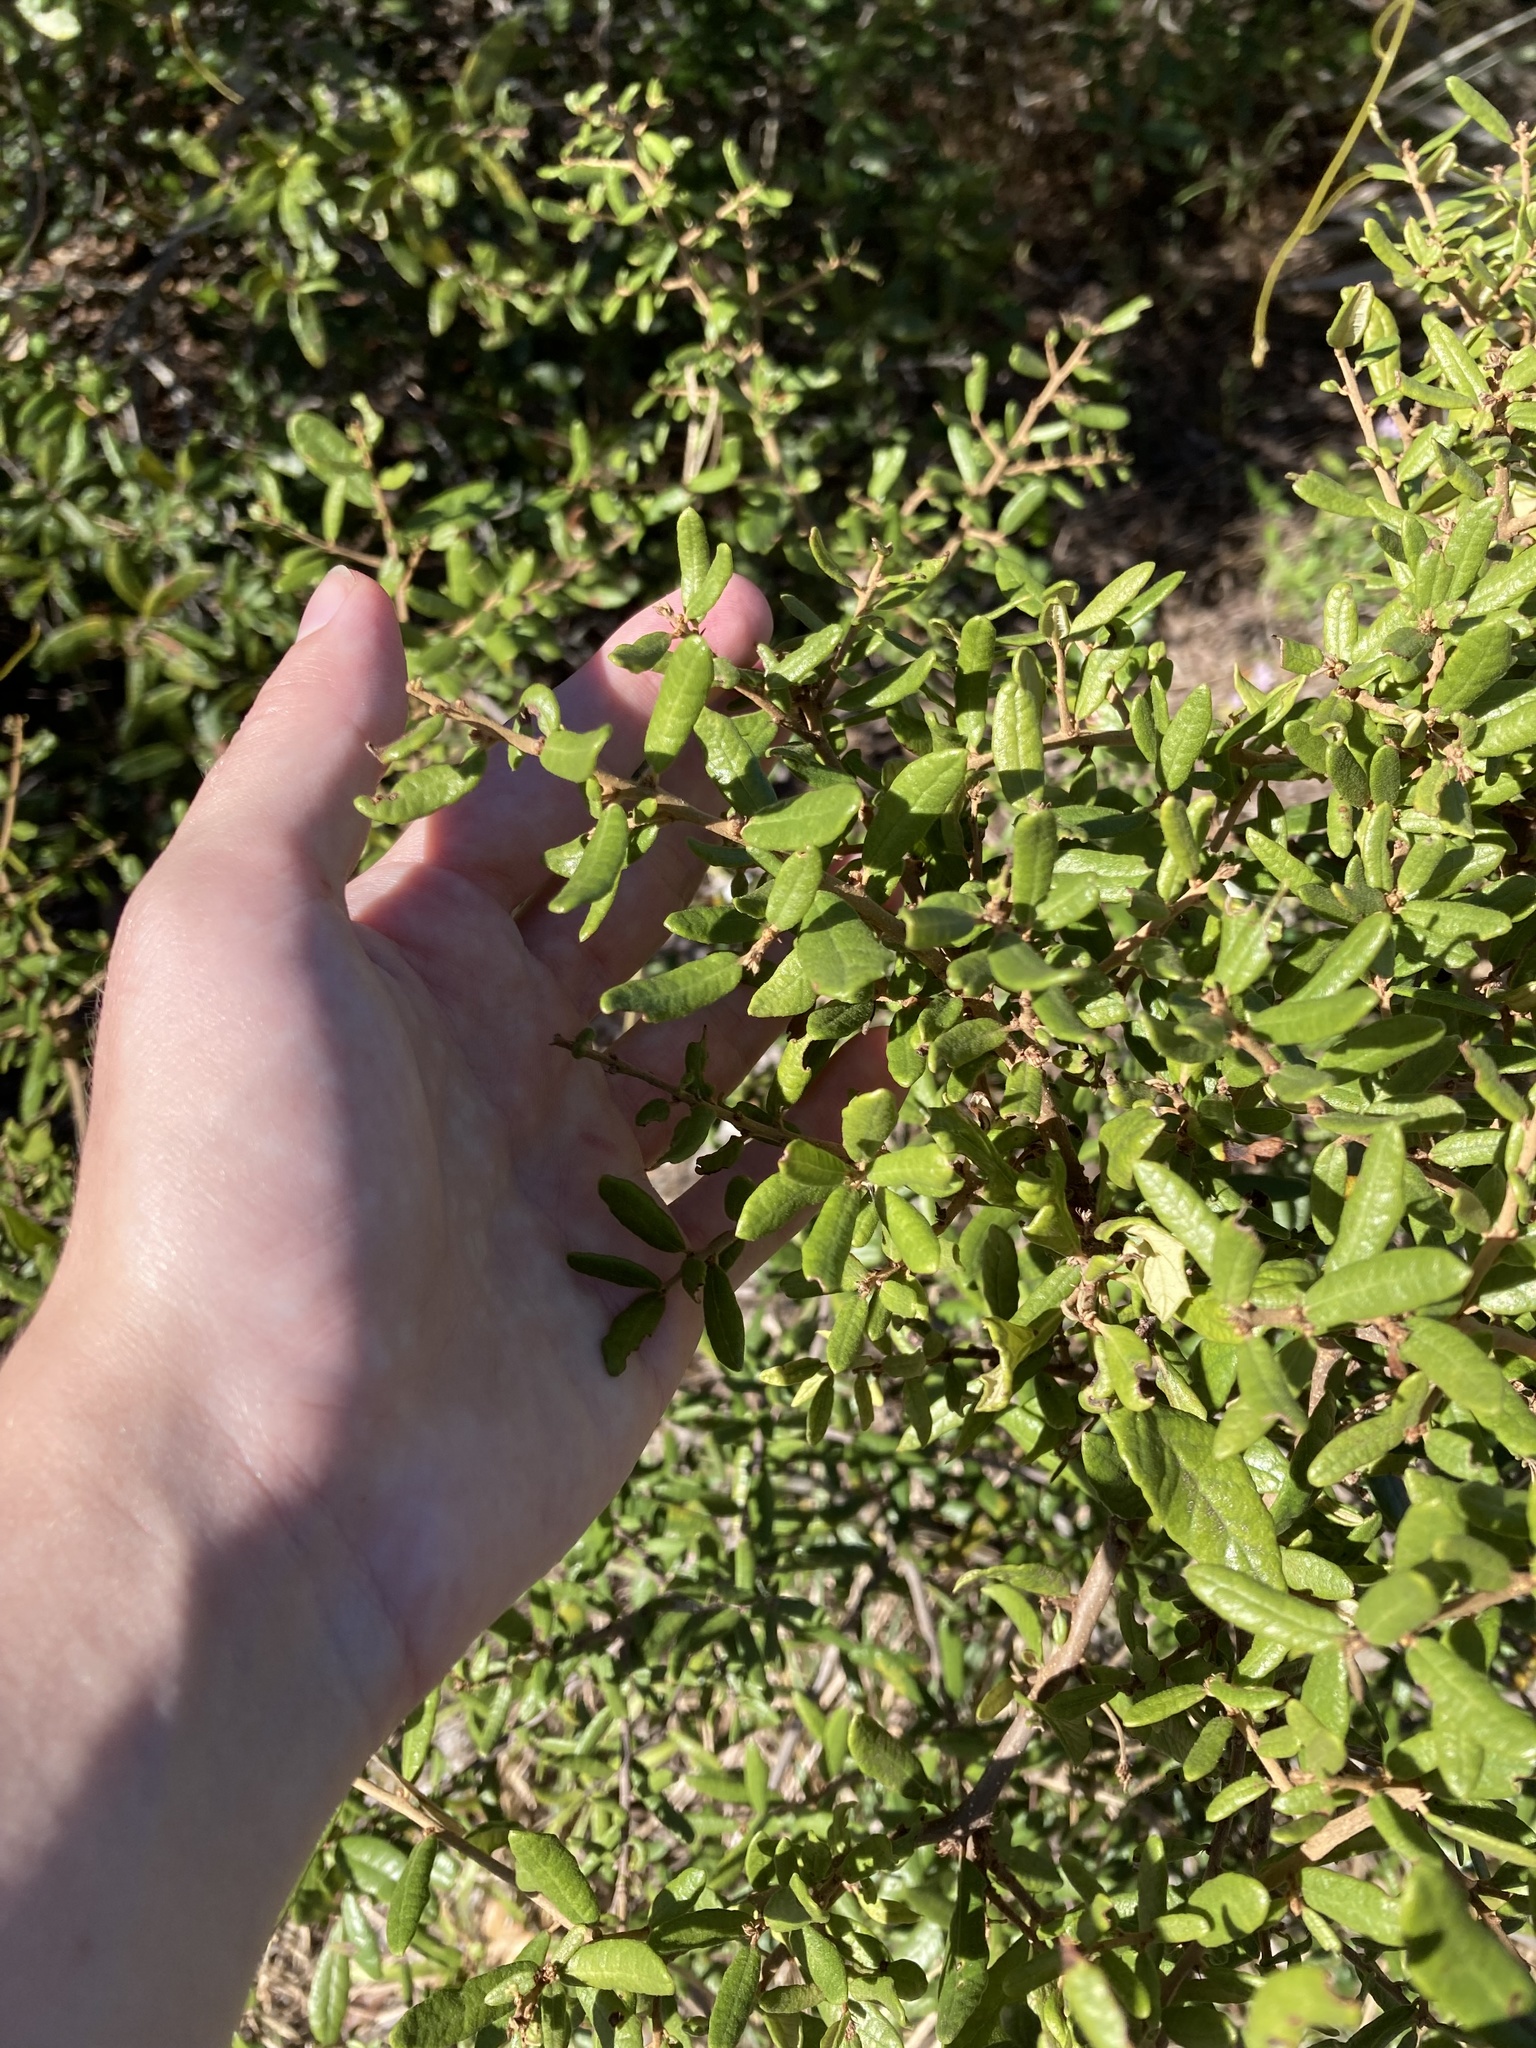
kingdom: Plantae
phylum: Tracheophyta
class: Magnoliopsida
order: Fagales
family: Fagaceae
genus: Quercus
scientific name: Quercus geminata
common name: Sand live oak
